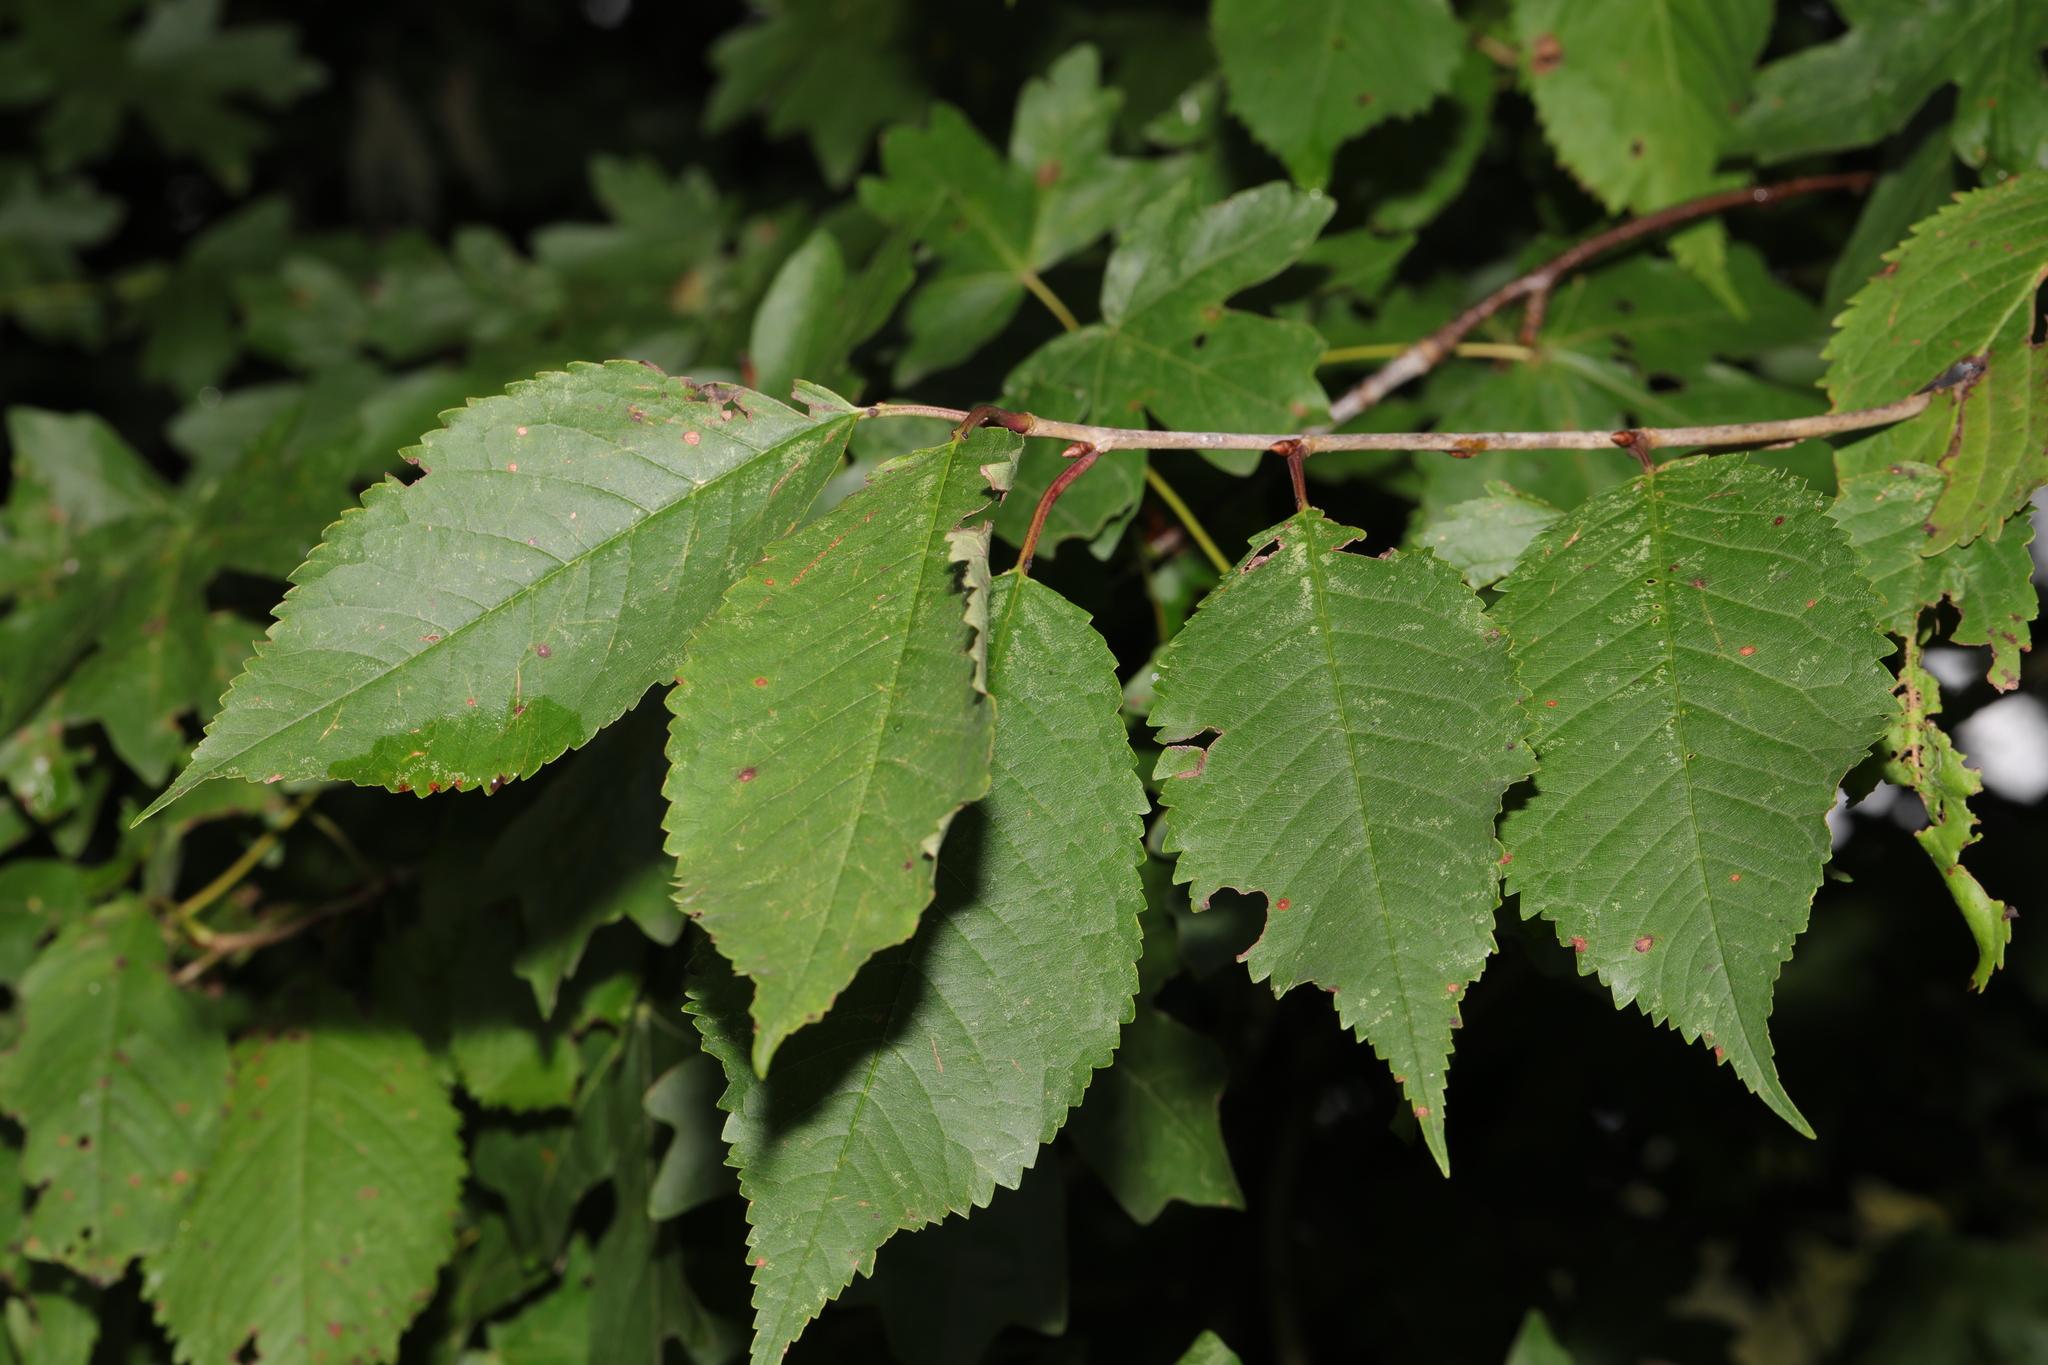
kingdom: Plantae
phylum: Tracheophyta
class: Magnoliopsida
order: Rosales
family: Rosaceae
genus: Prunus
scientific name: Prunus avium
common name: Sweet cherry
